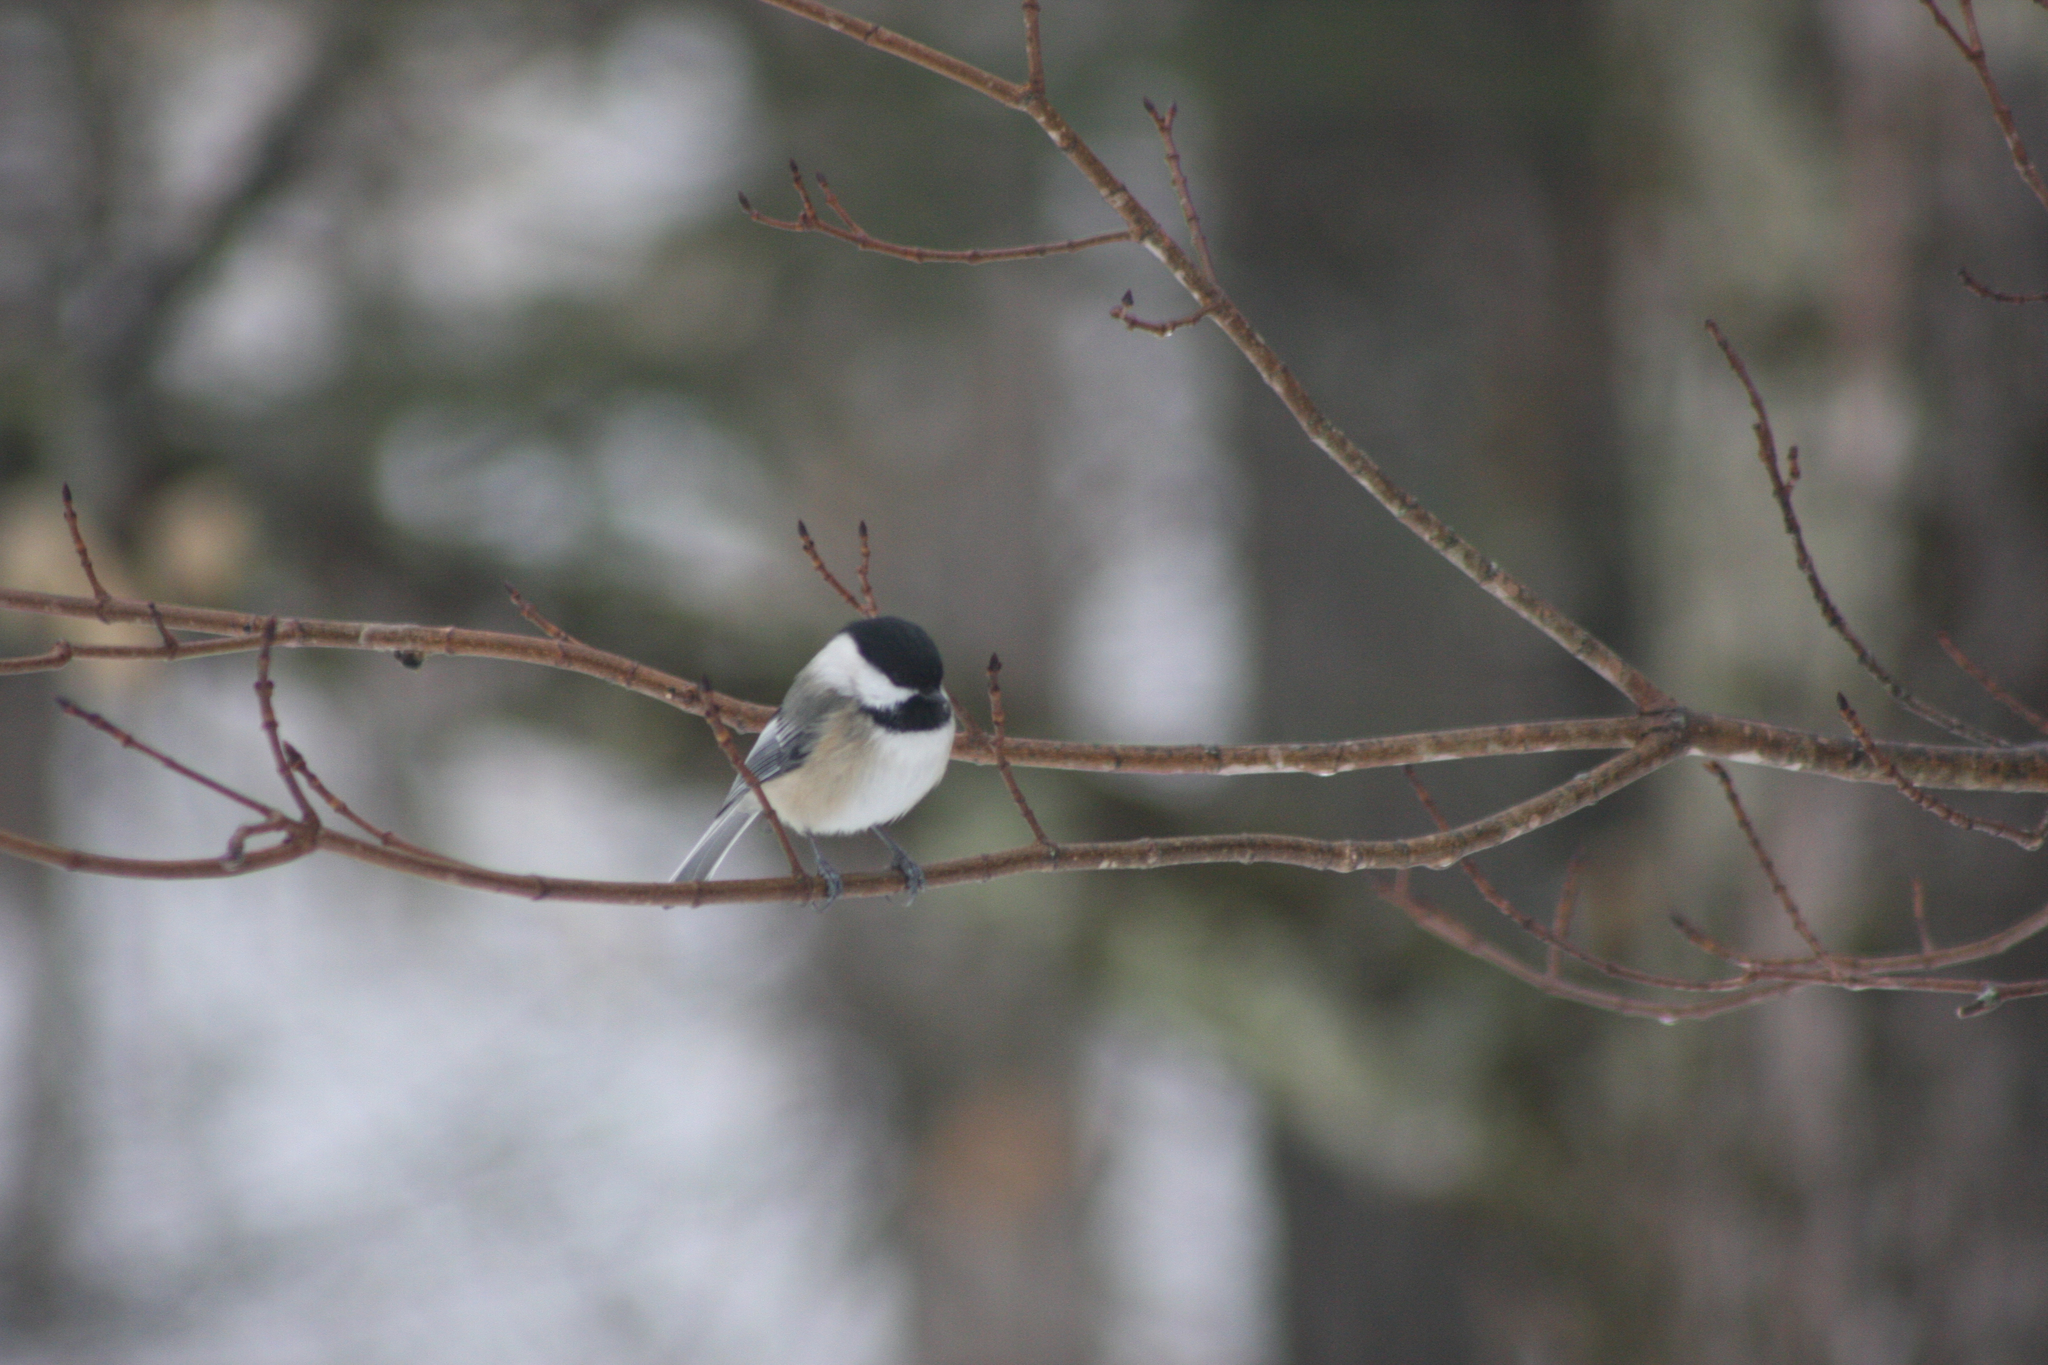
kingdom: Animalia
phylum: Chordata
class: Aves
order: Passeriformes
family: Paridae
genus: Poecile
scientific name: Poecile atricapillus
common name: Black-capped chickadee
